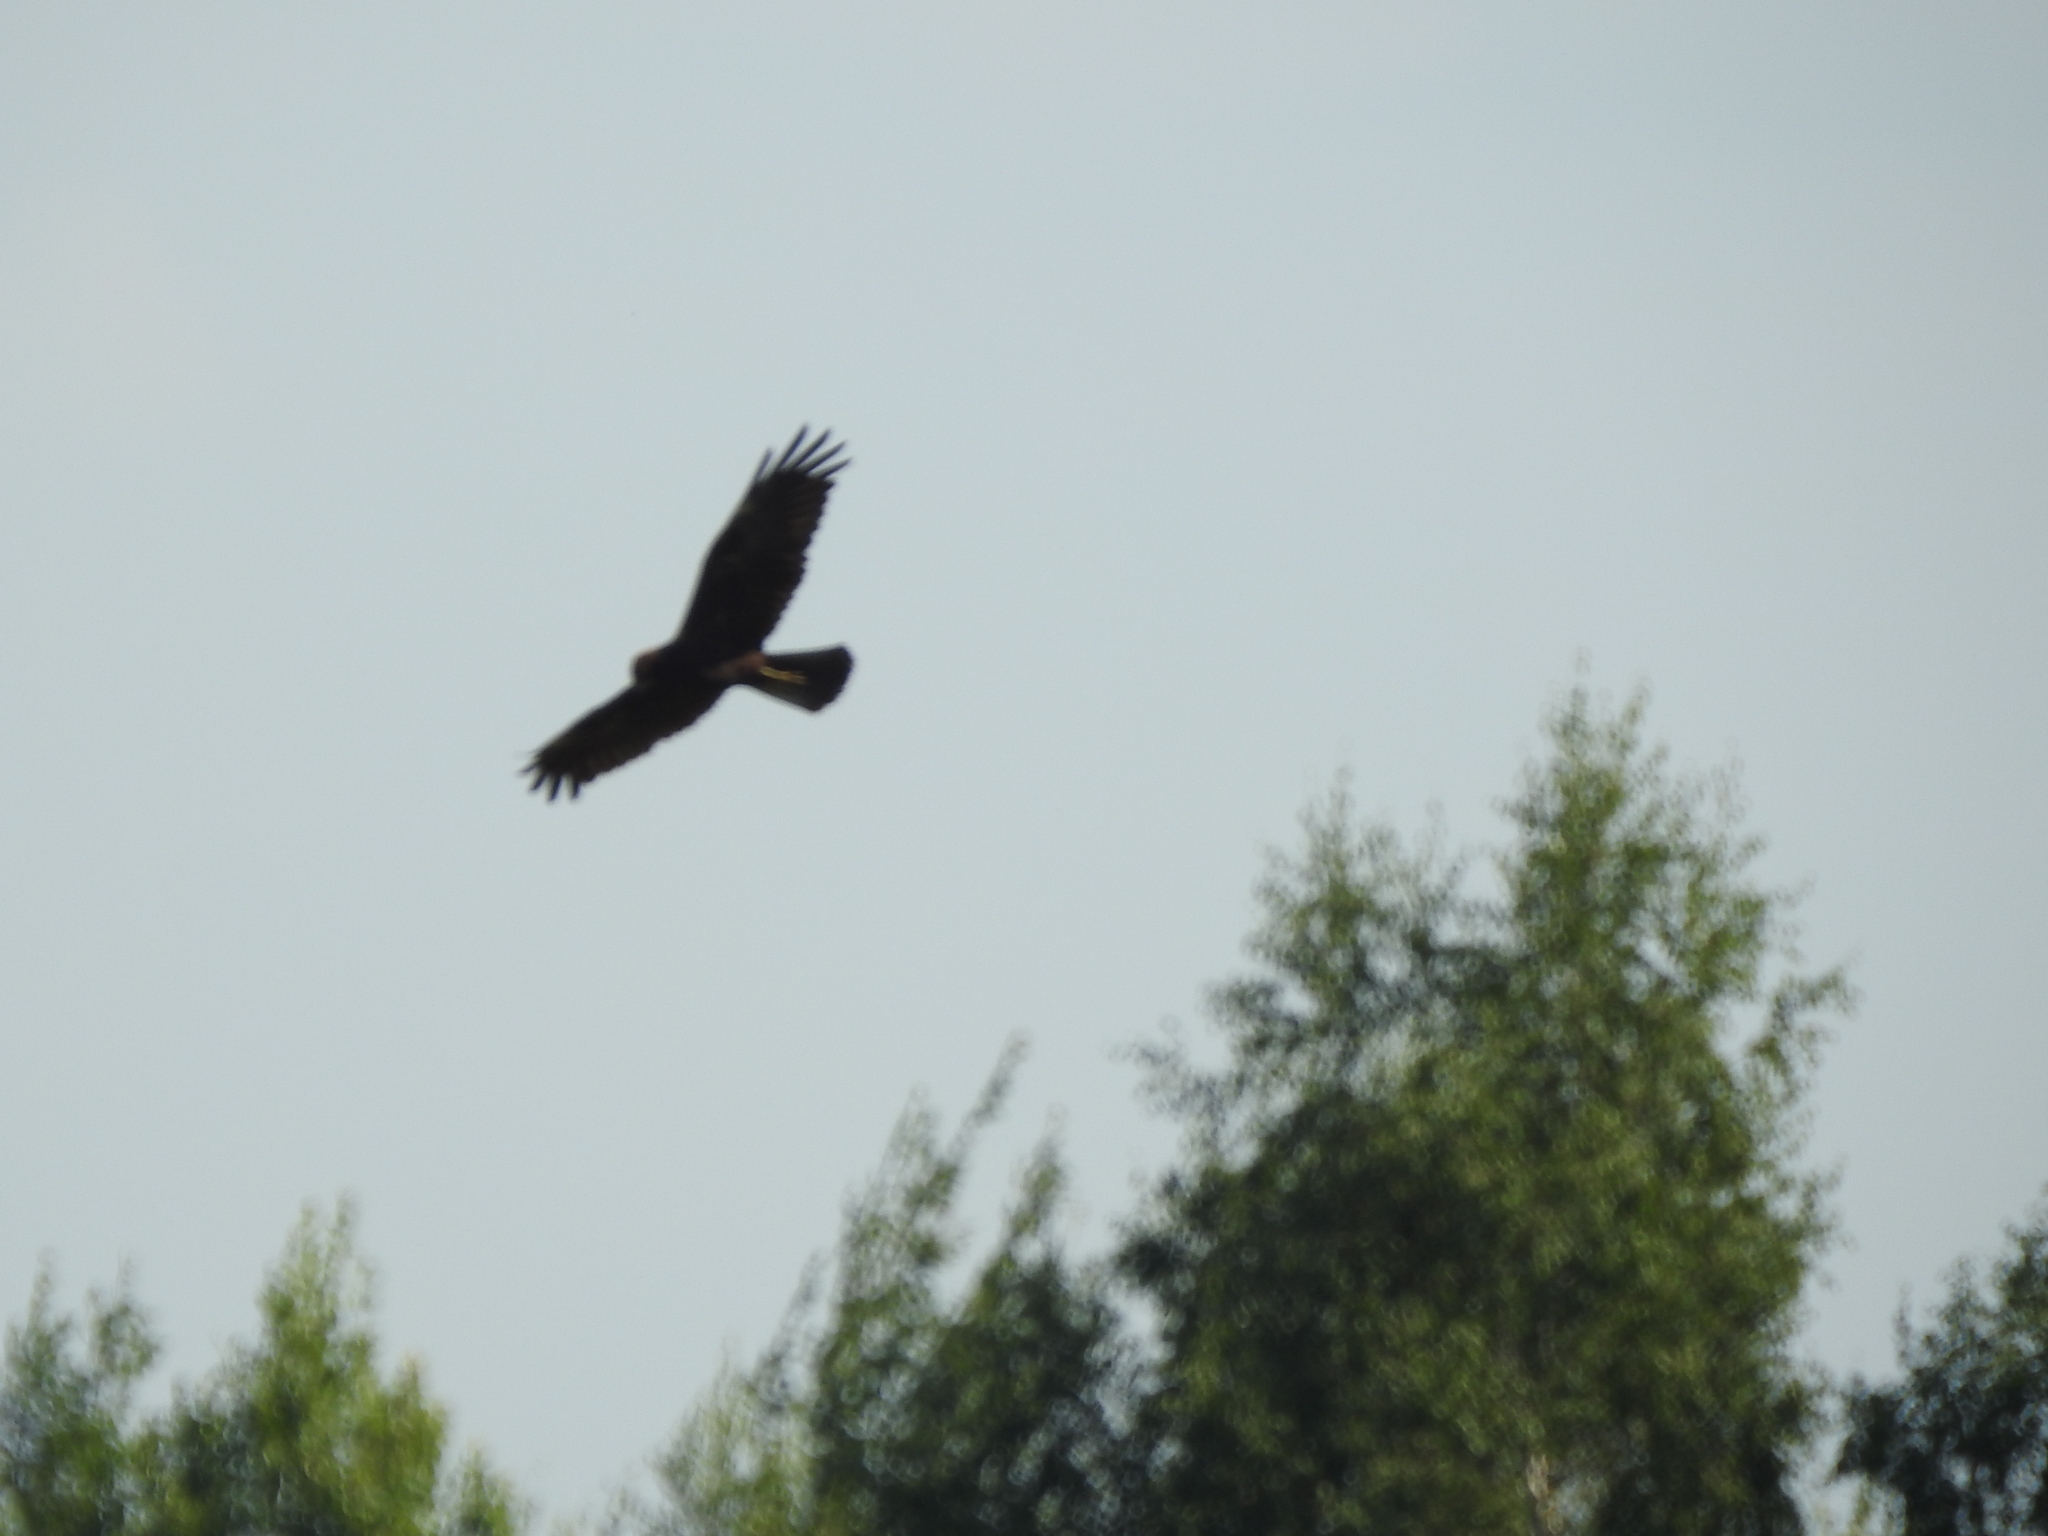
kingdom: Animalia
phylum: Chordata
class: Aves
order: Accipitriformes
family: Accipitridae
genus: Circus
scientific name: Circus aeruginosus
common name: Western marsh harrier
